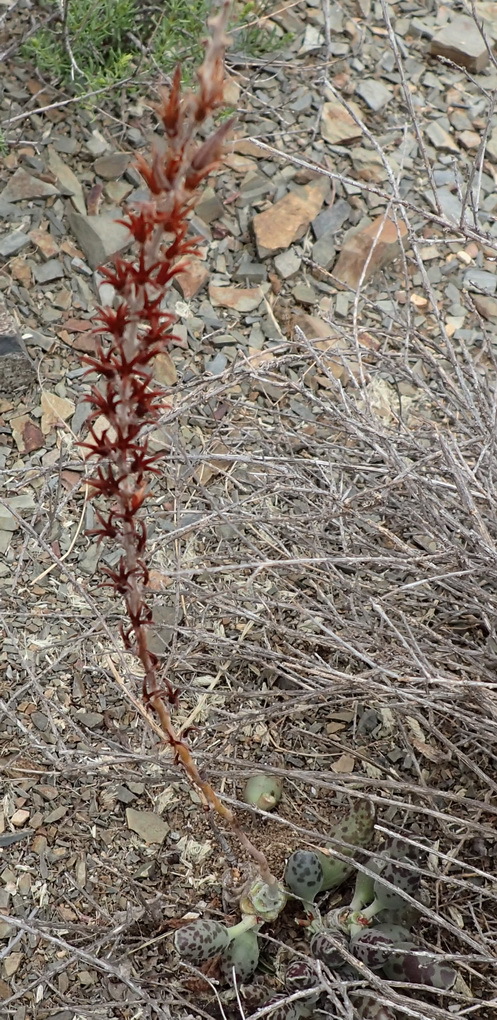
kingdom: Plantae
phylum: Tracheophyta
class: Magnoliopsida
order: Saxifragales
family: Crassulaceae
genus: Adromischus
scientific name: Adromischus cooperi
